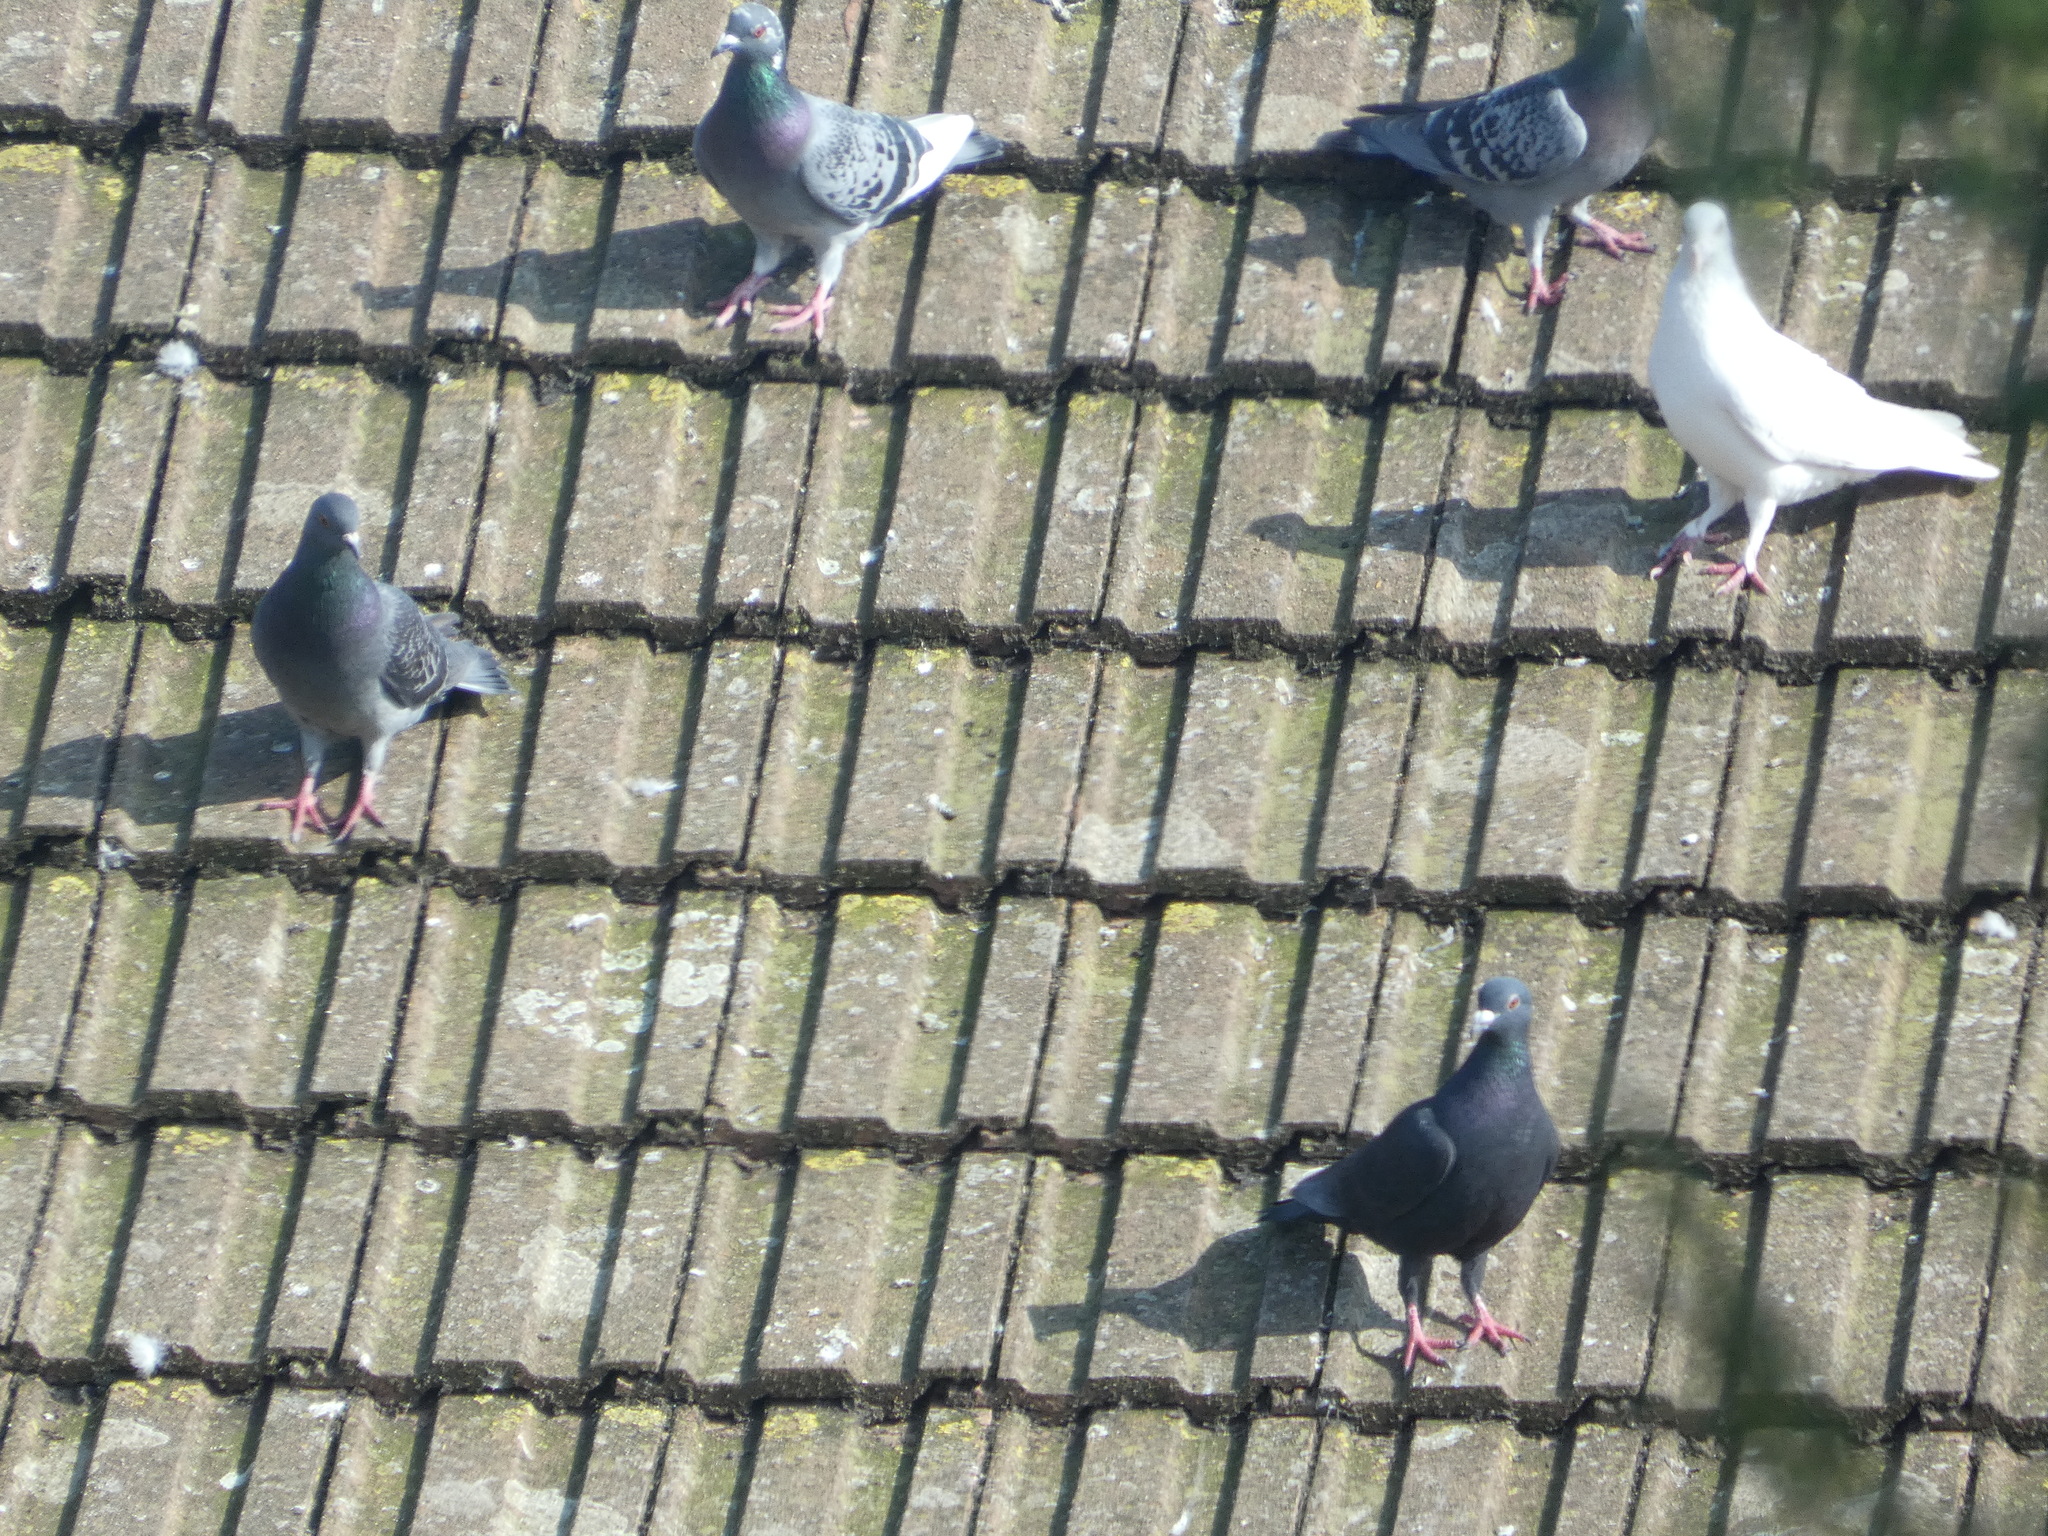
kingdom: Animalia
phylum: Chordata
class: Aves
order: Columbiformes
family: Columbidae
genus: Columba
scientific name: Columba livia
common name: Rock pigeon
